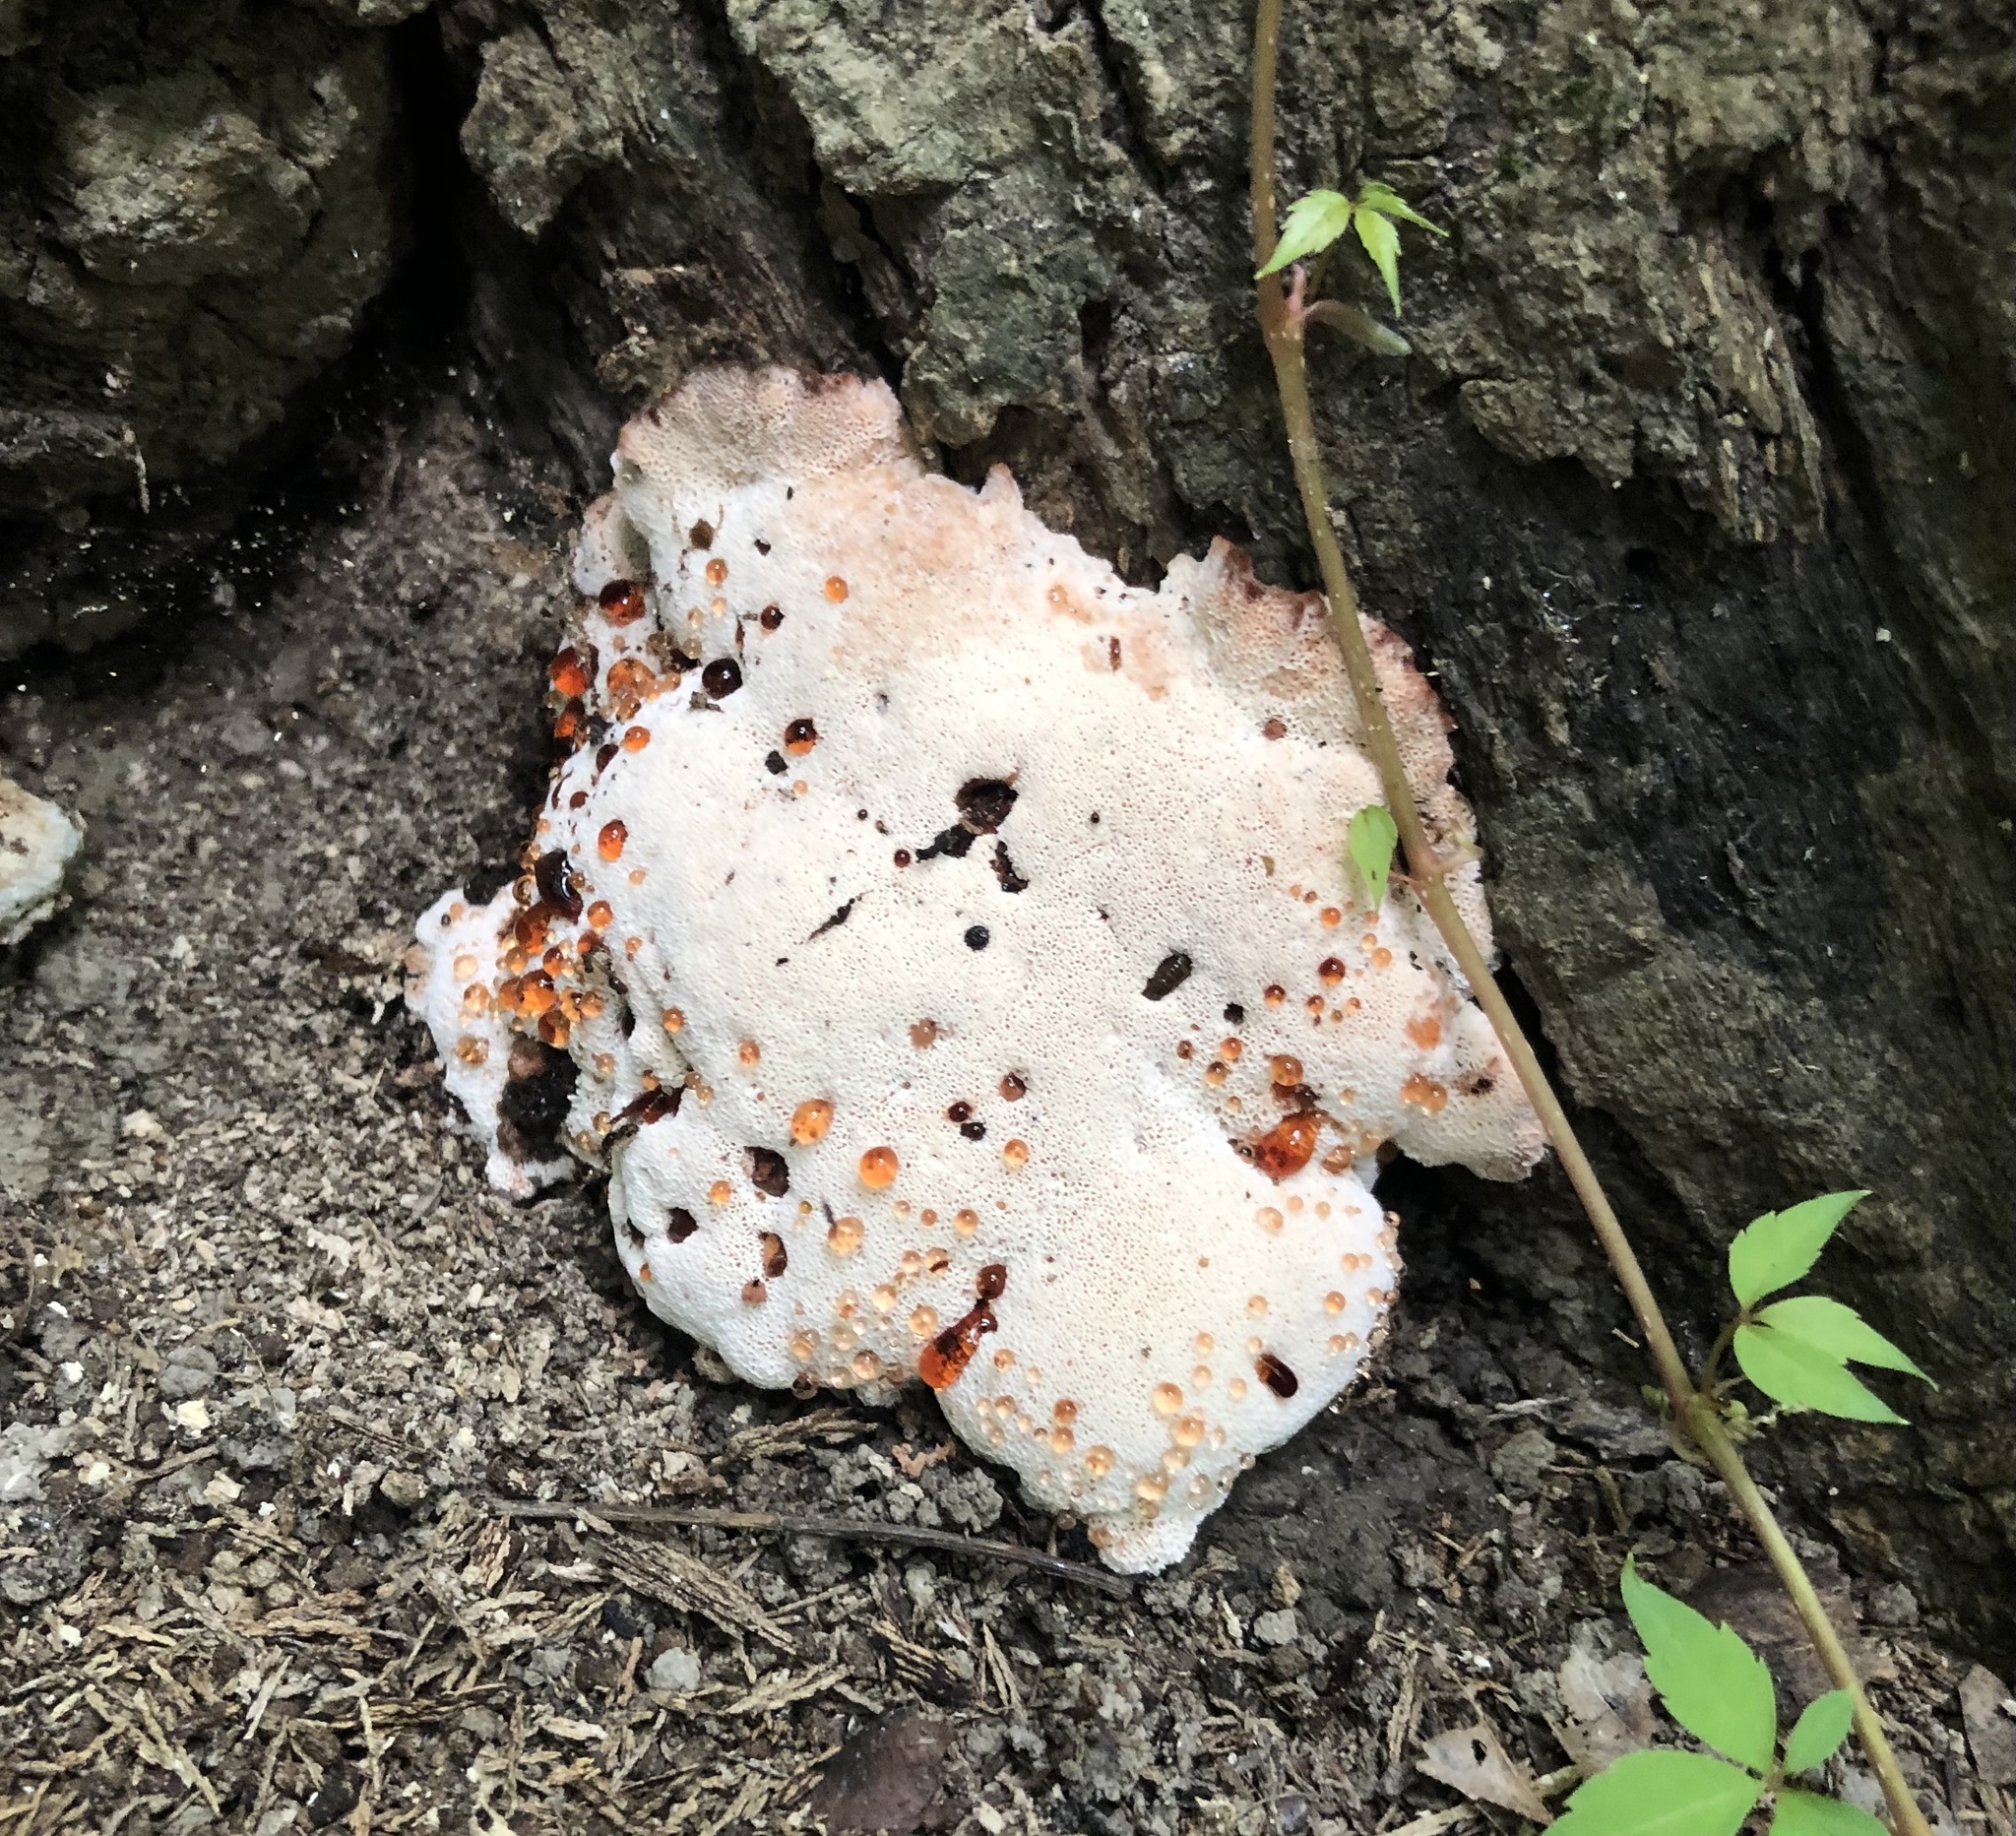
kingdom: Fungi
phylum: Basidiomycota
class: Agaricomycetes
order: Polyporales
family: Podoscyphaceae
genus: Abortiporus
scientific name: Abortiporus biennis
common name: Blushing rosette
